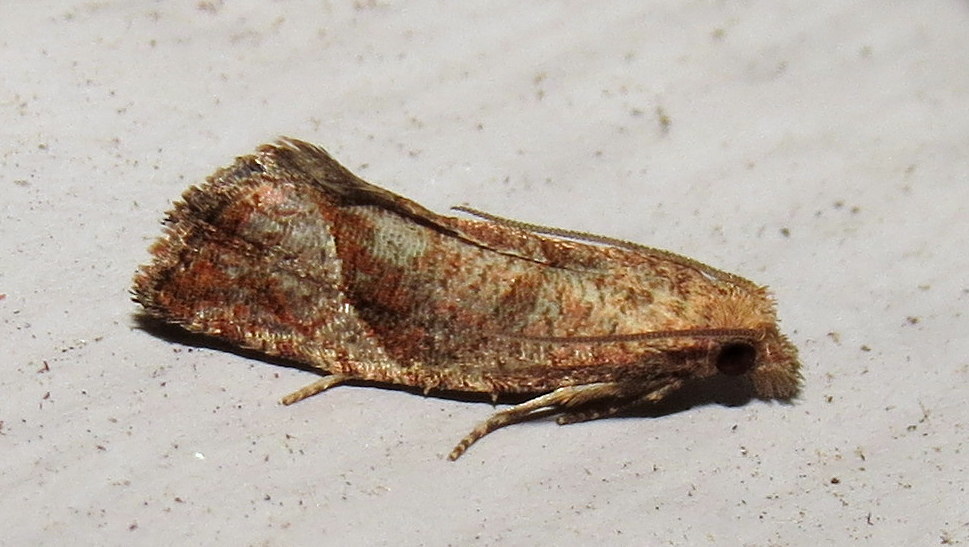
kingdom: Animalia
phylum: Arthropoda
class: Insecta
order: Lepidoptera
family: Tortricidae
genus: Pelochrista
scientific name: Pelochrista derelicta
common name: Derelict pelochrista moth
